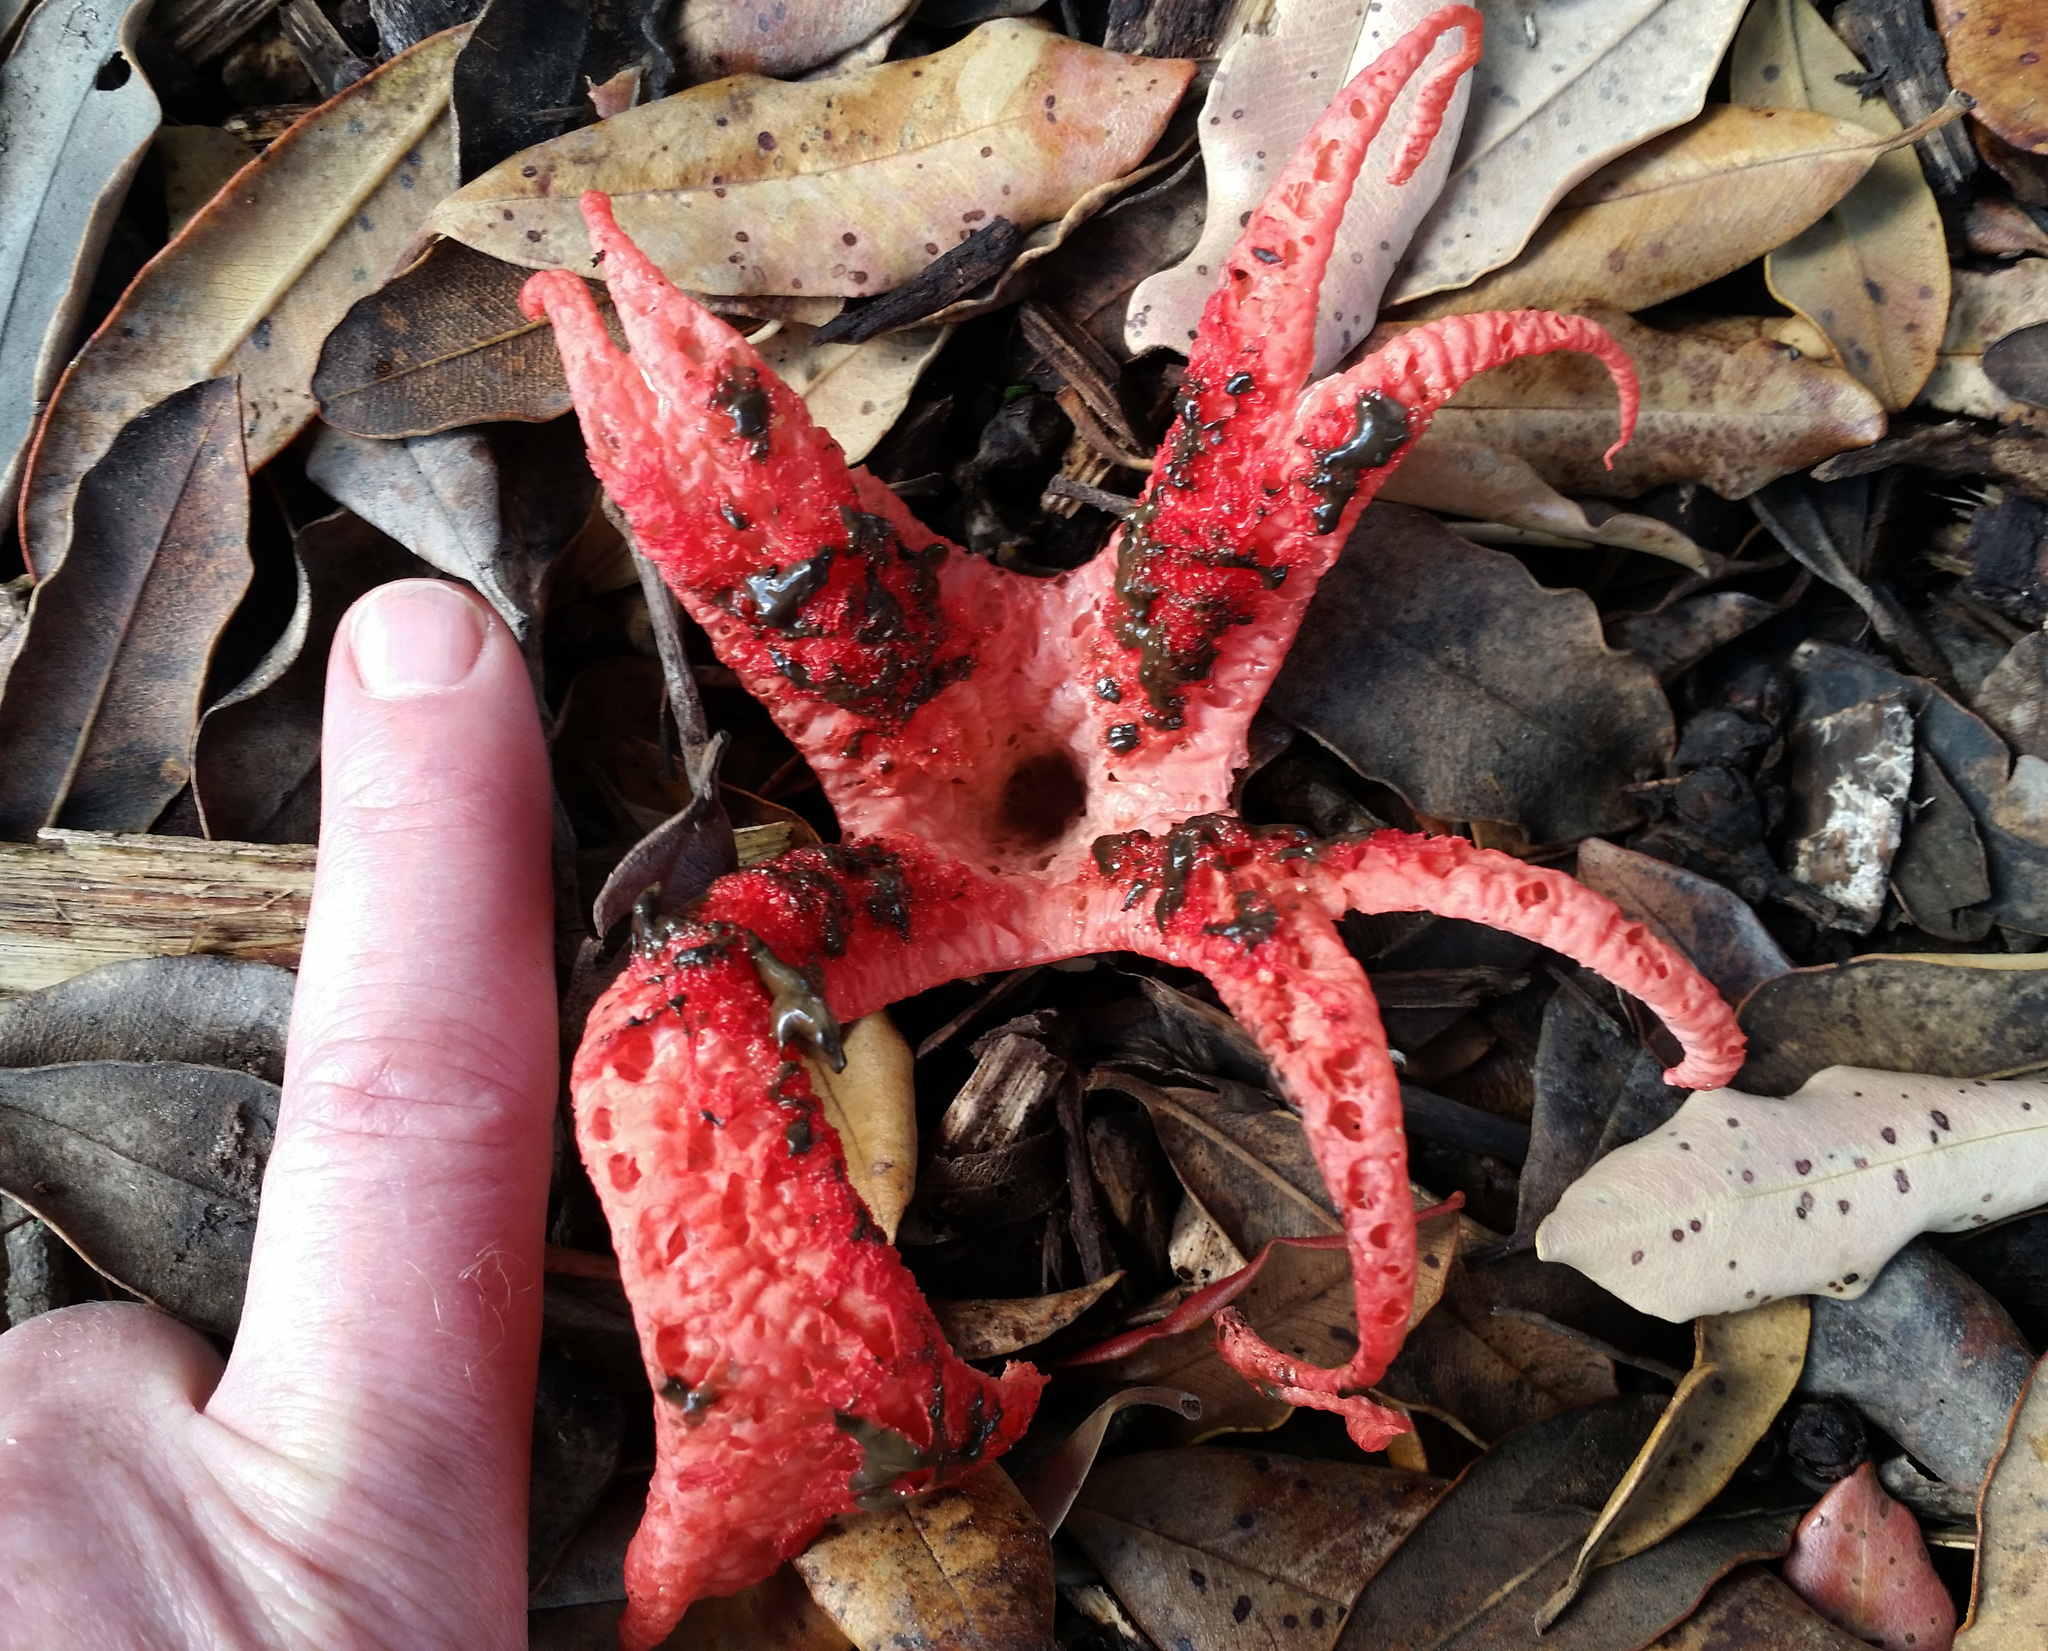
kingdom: Fungi
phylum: Basidiomycota
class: Agaricomycetes
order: Phallales
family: Phallaceae
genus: Clathrus
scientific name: Clathrus archeri
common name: Devil's fingers
